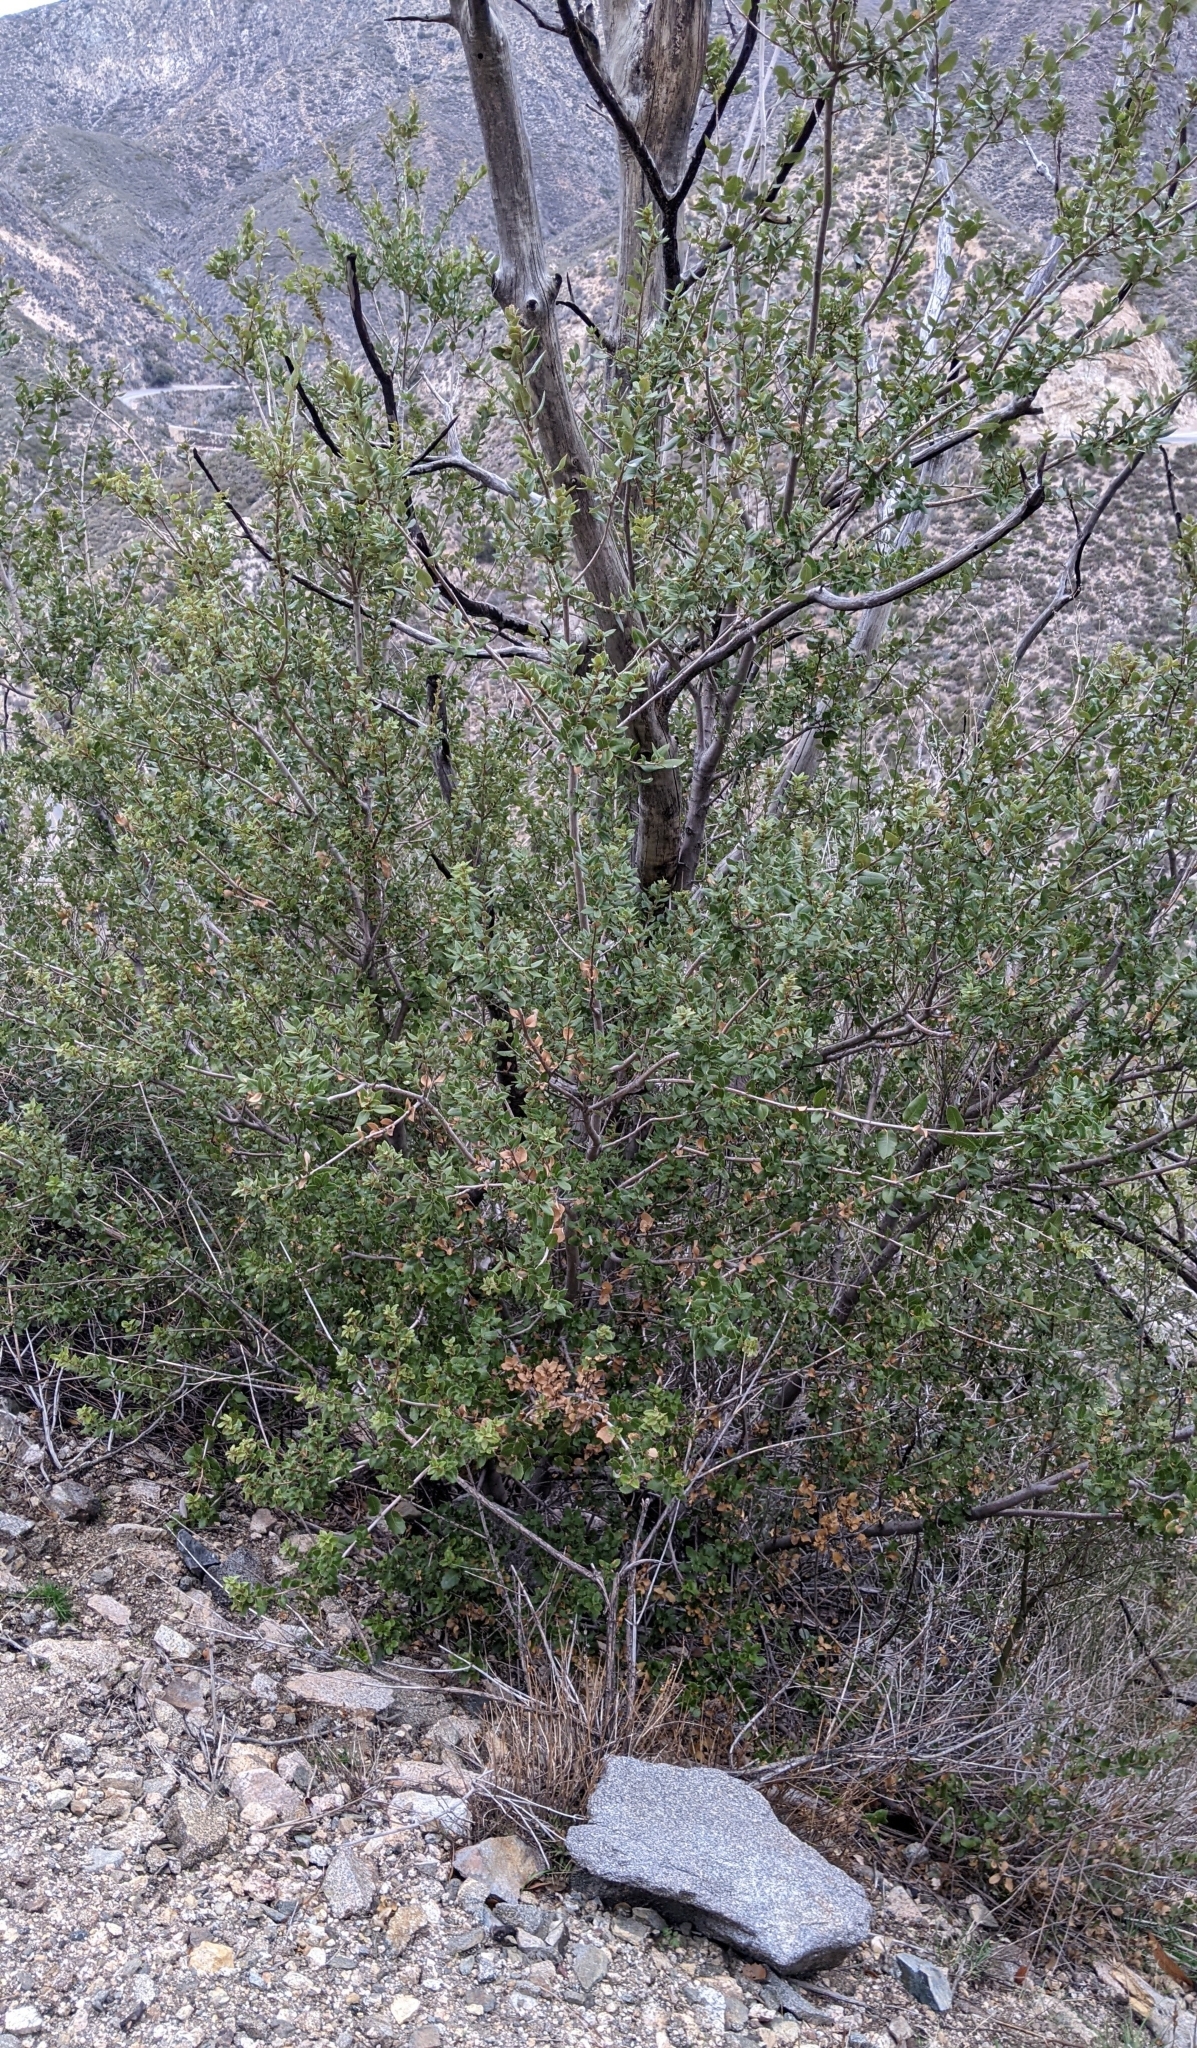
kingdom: Plantae
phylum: Tracheophyta
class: Magnoliopsida
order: Fagales
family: Fagaceae
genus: Quercus
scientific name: Quercus chrysolepis
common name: Canyon live oak
